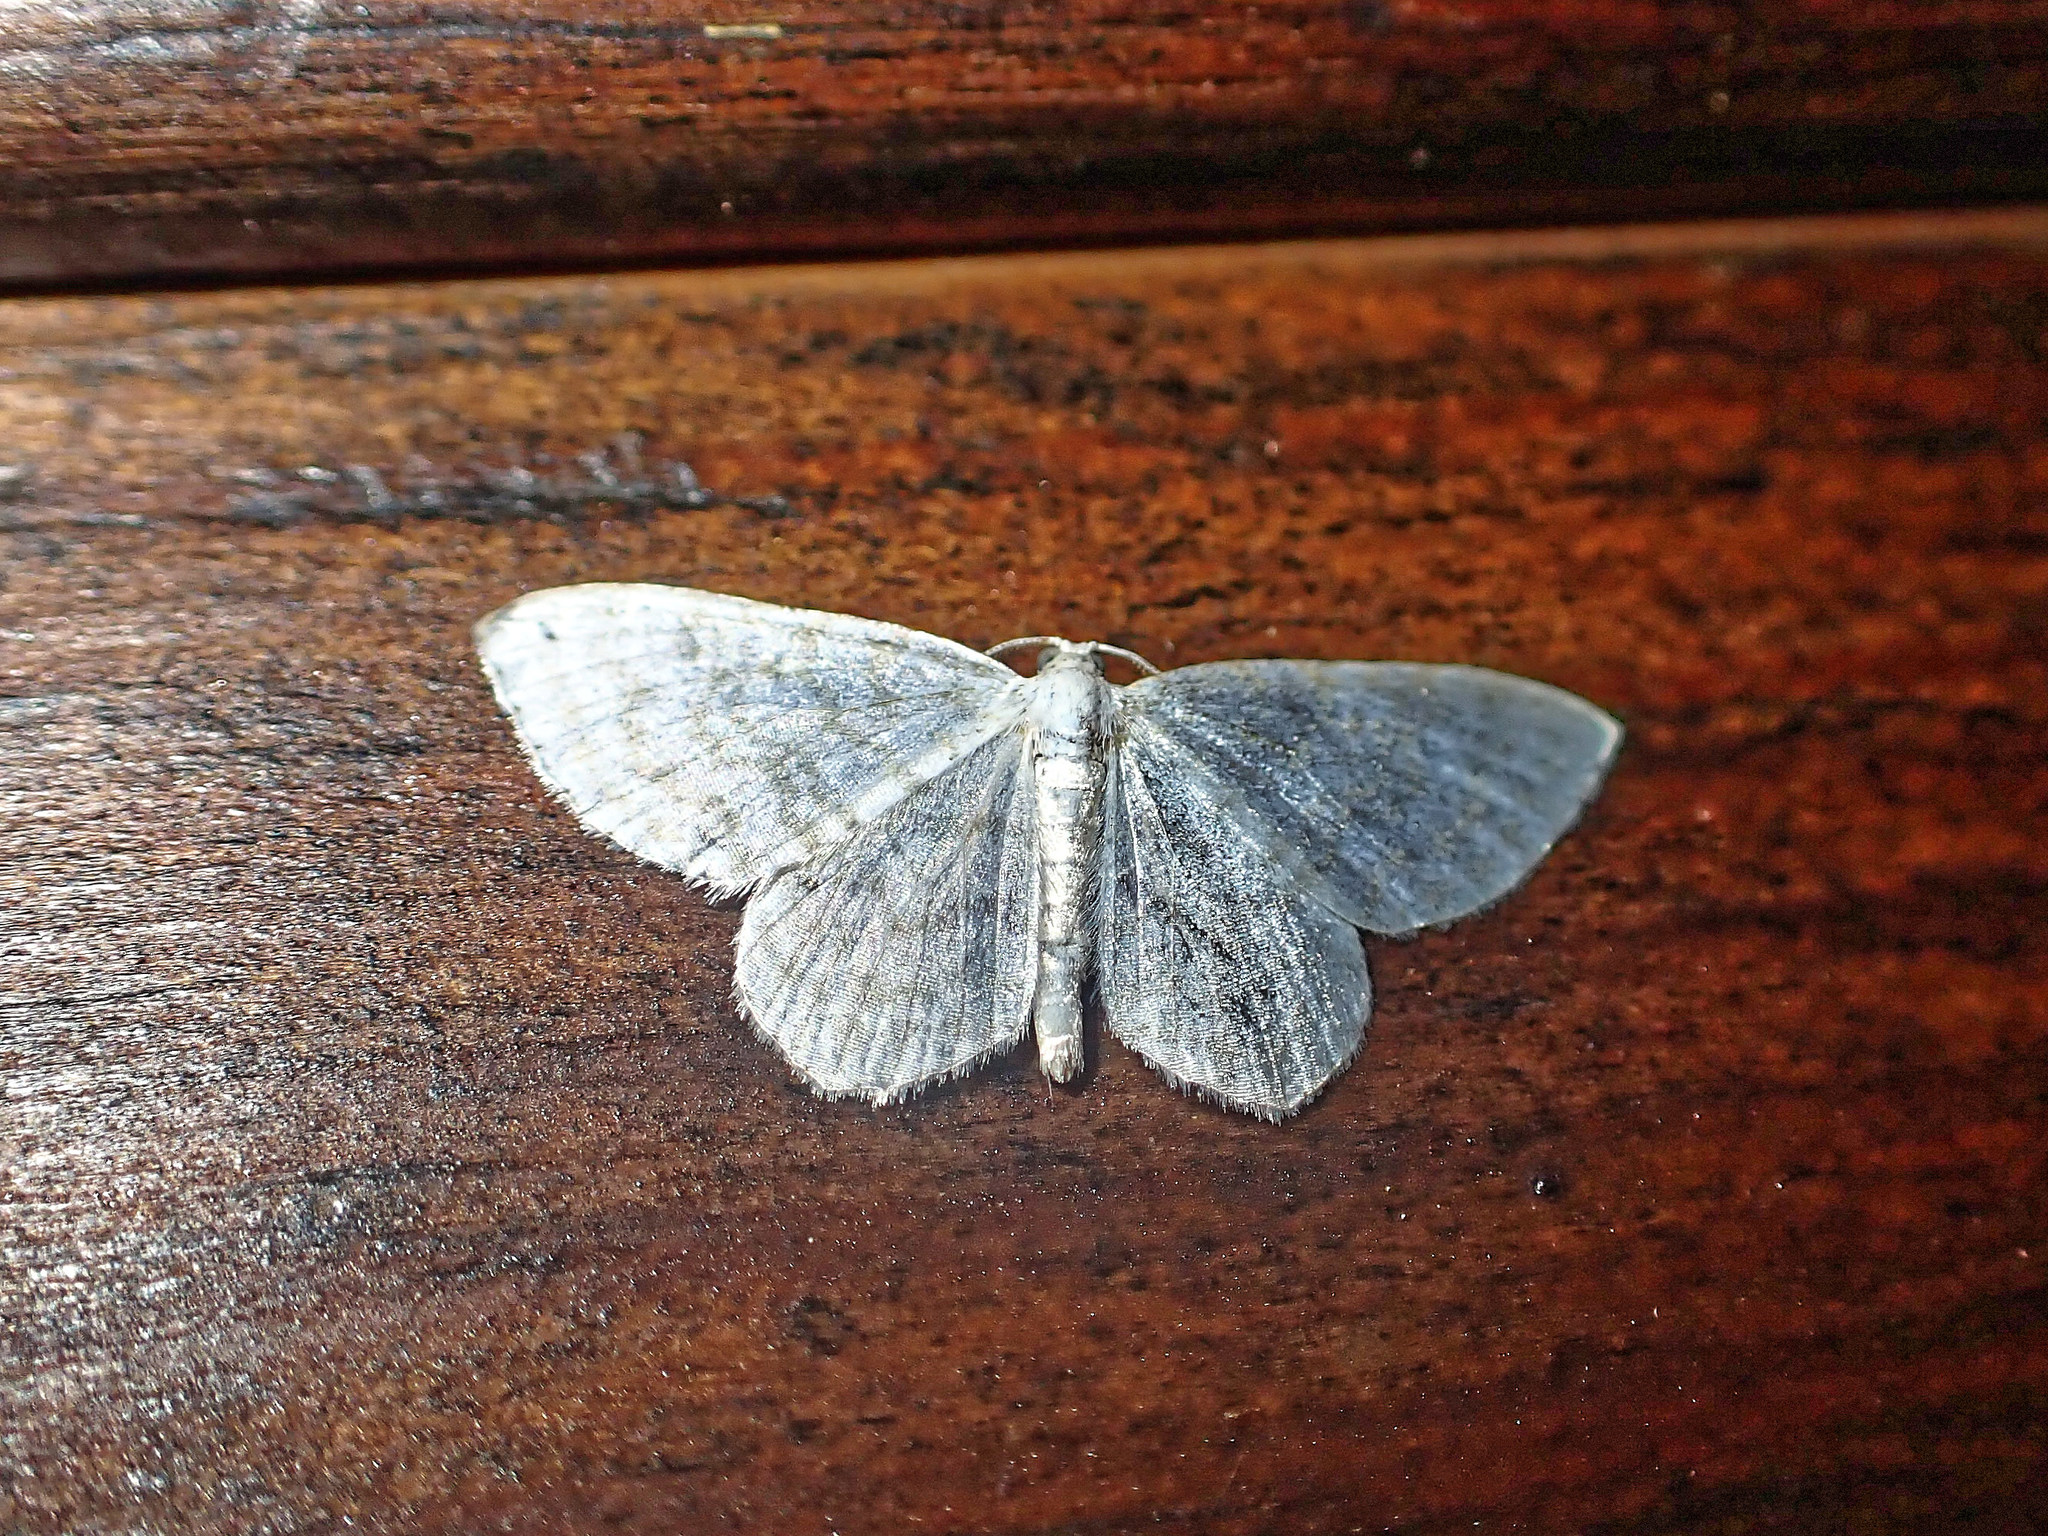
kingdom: Animalia
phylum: Arthropoda
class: Insecta
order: Lepidoptera
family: Geometridae
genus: Asthena
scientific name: Asthena albulata
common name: Small white wave
